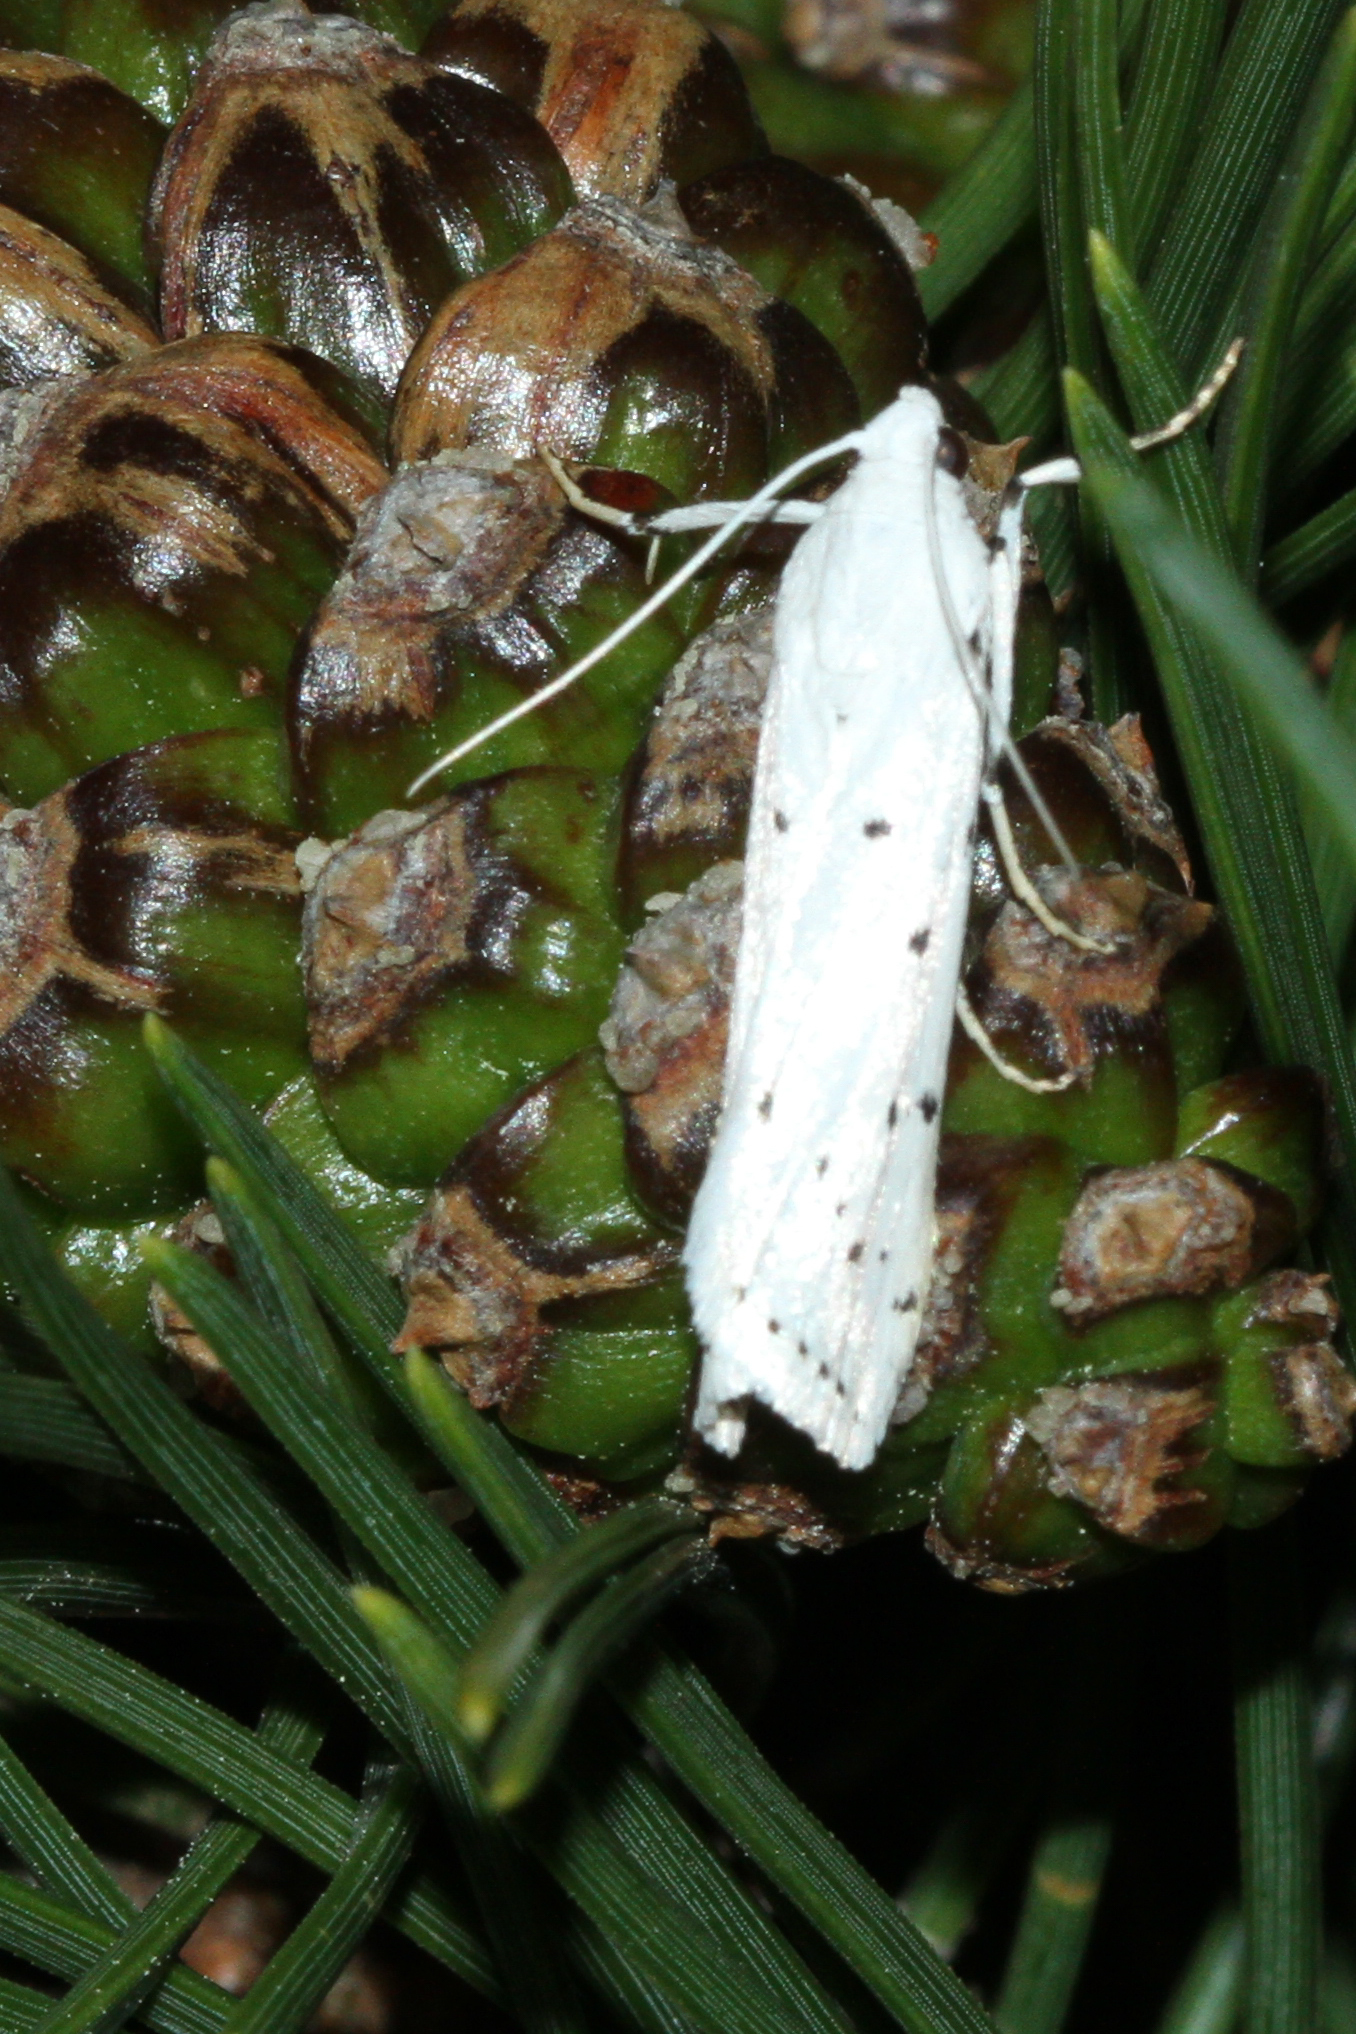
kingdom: Animalia
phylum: Arthropoda
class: Insecta
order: Lepidoptera
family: Pyralidae
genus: Myelois
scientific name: Myelois circumvoluta
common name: Thistle ermine
